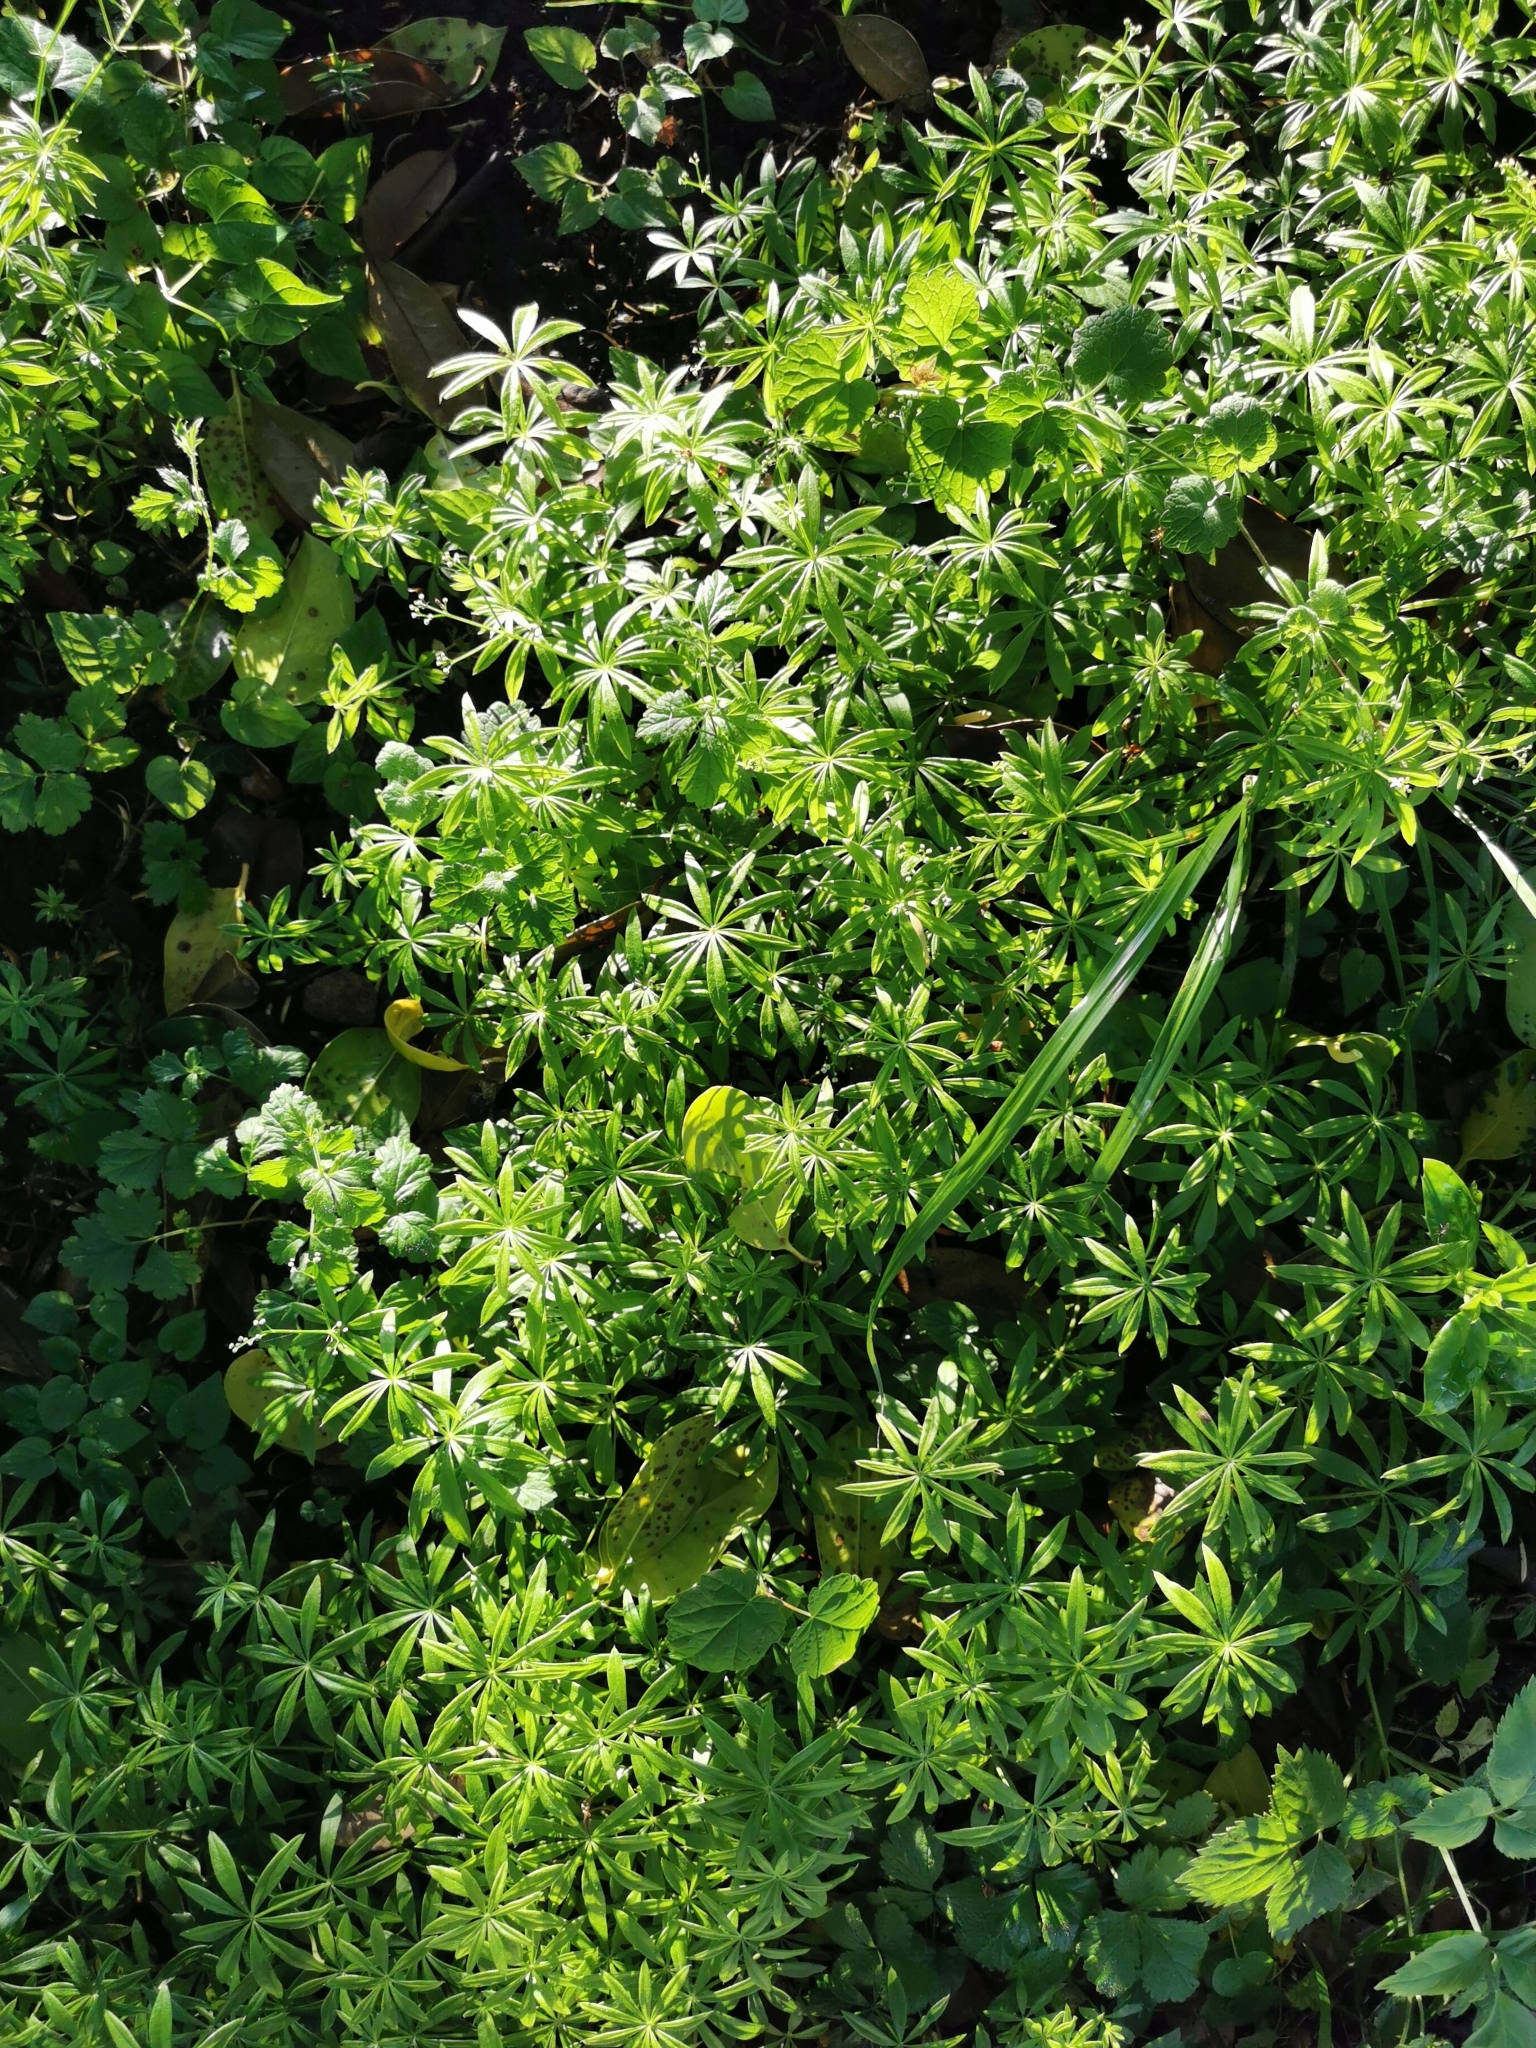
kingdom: Plantae
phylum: Tracheophyta
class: Magnoliopsida
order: Gentianales
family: Rubiaceae
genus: Galium
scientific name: Galium aparine
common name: Cleavers
